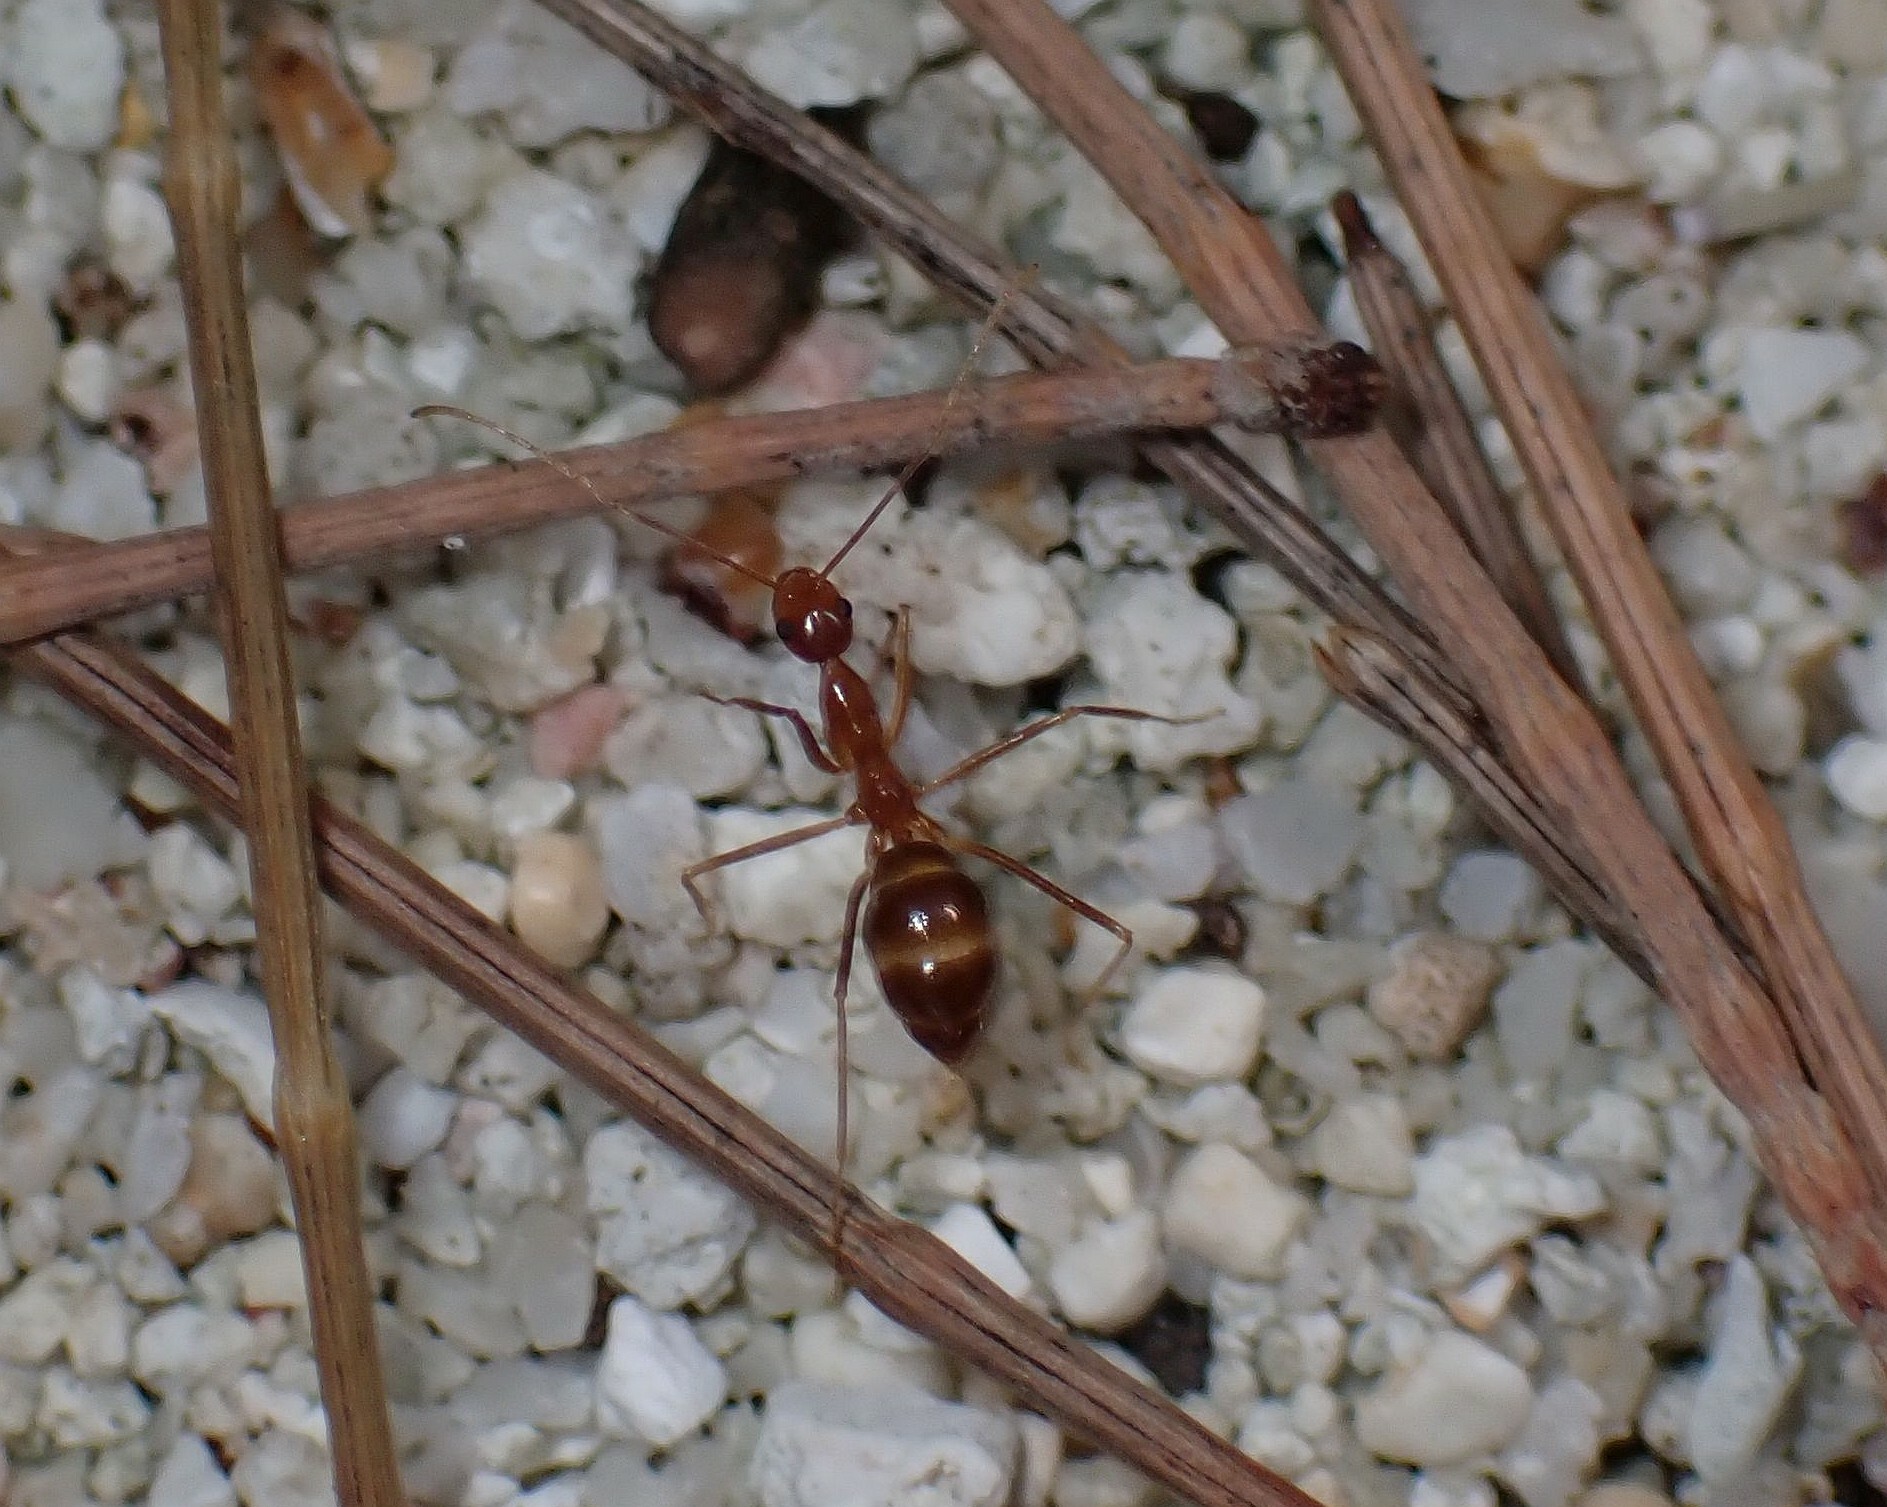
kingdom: Animalia
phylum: Arthropoda
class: Insecta
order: Hymenoptera
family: Formicidae
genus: Anoplolepis
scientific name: Anoplolepis gracilipes
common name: Ant
